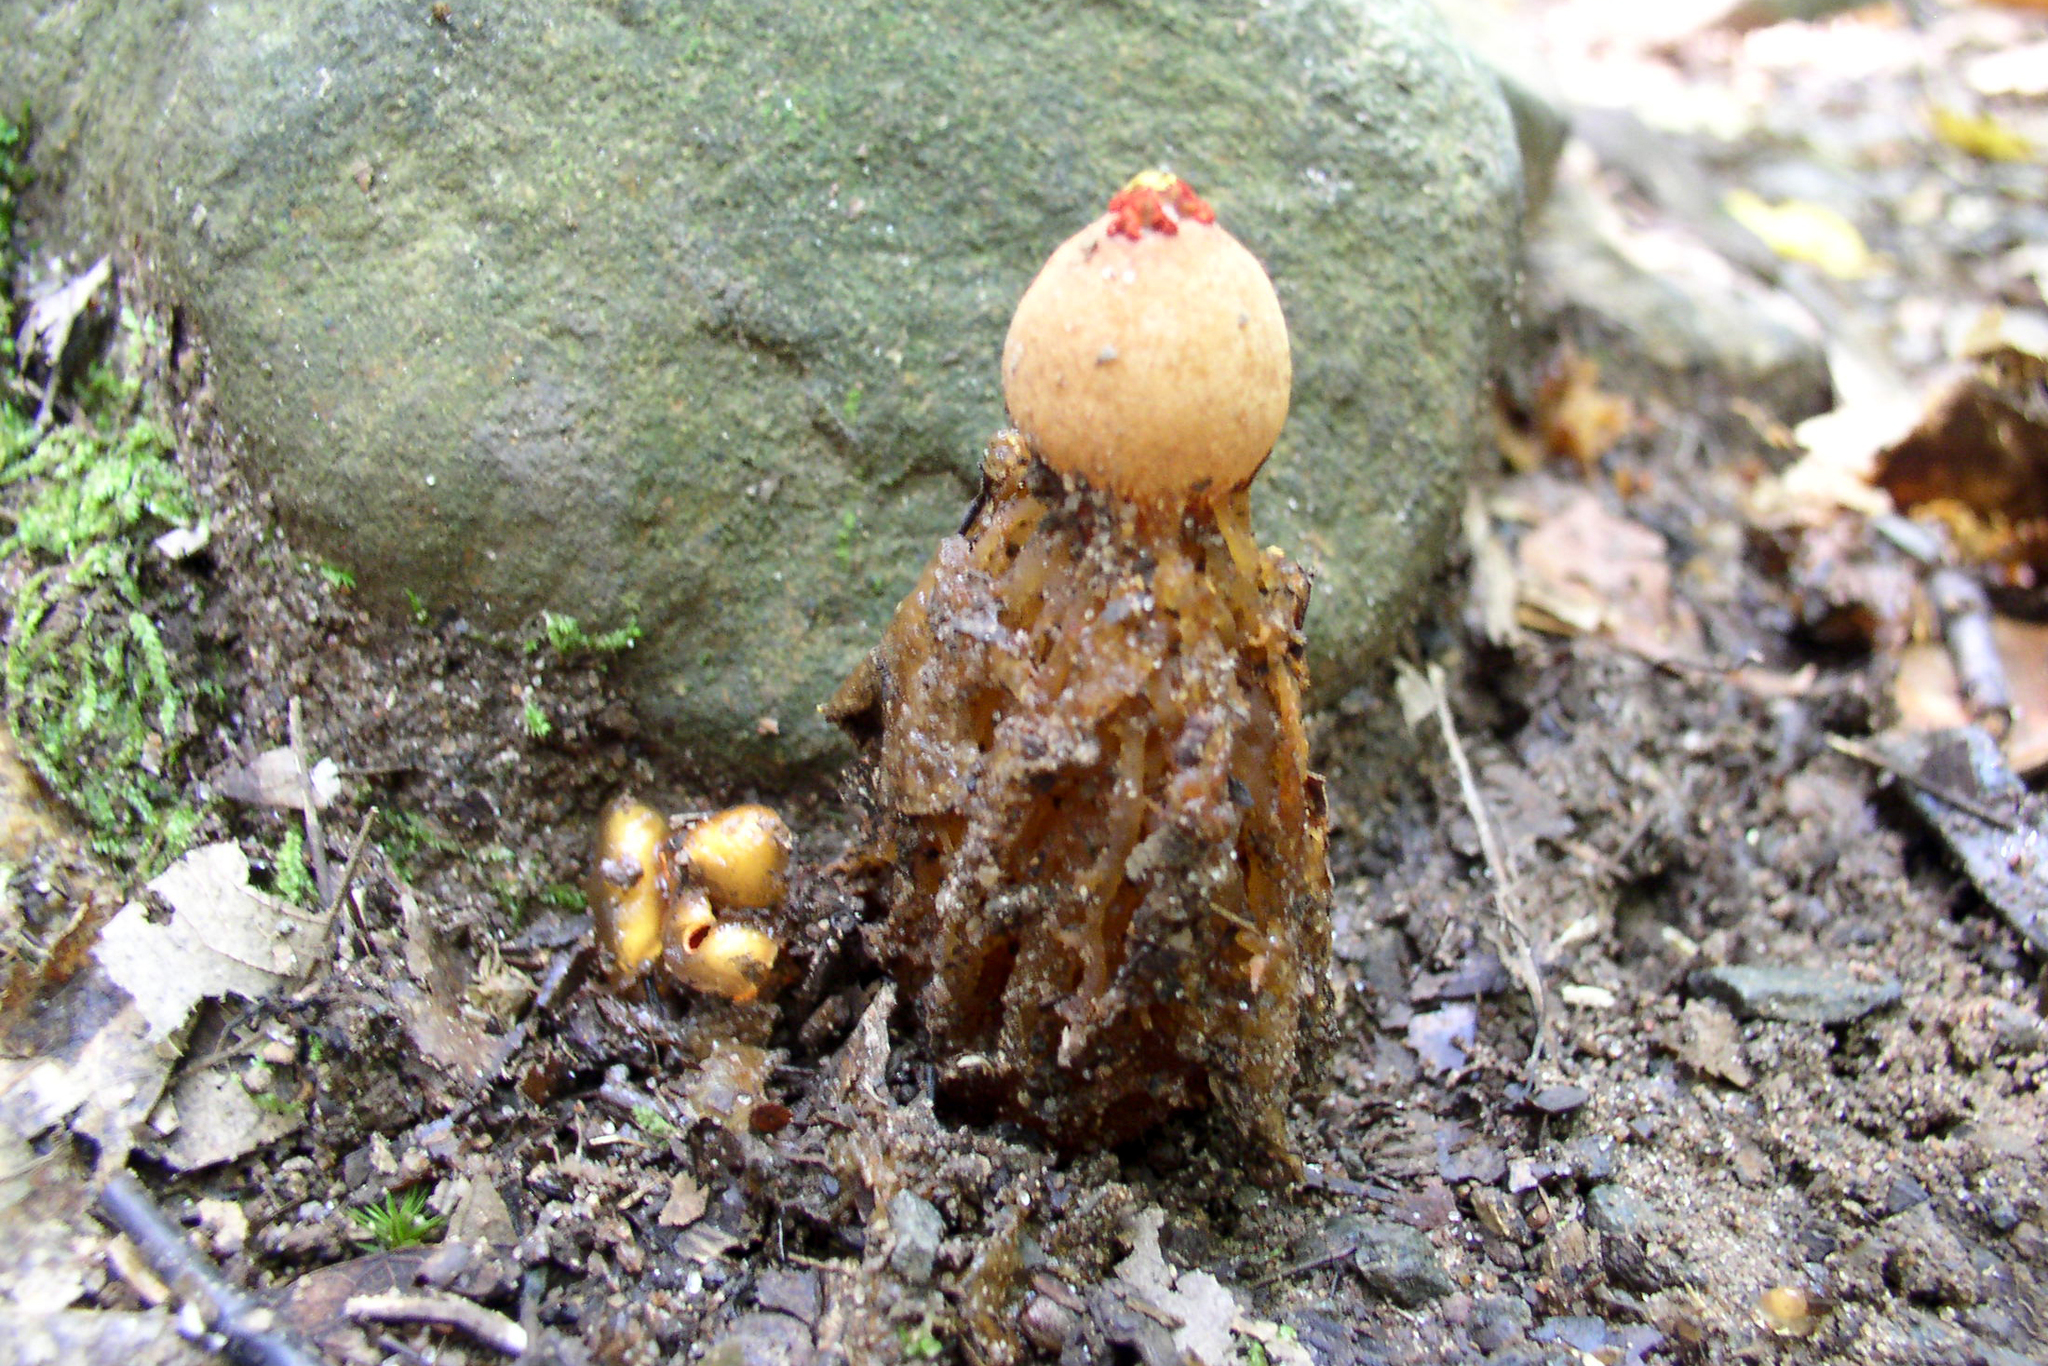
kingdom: Fungi
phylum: Basidiomycota
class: Agaricomycetes
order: Boletales
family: Calostomataceae
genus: Calostoma
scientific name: Calostoma cinnabarinum
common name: Stalked puffball-in-aspic
